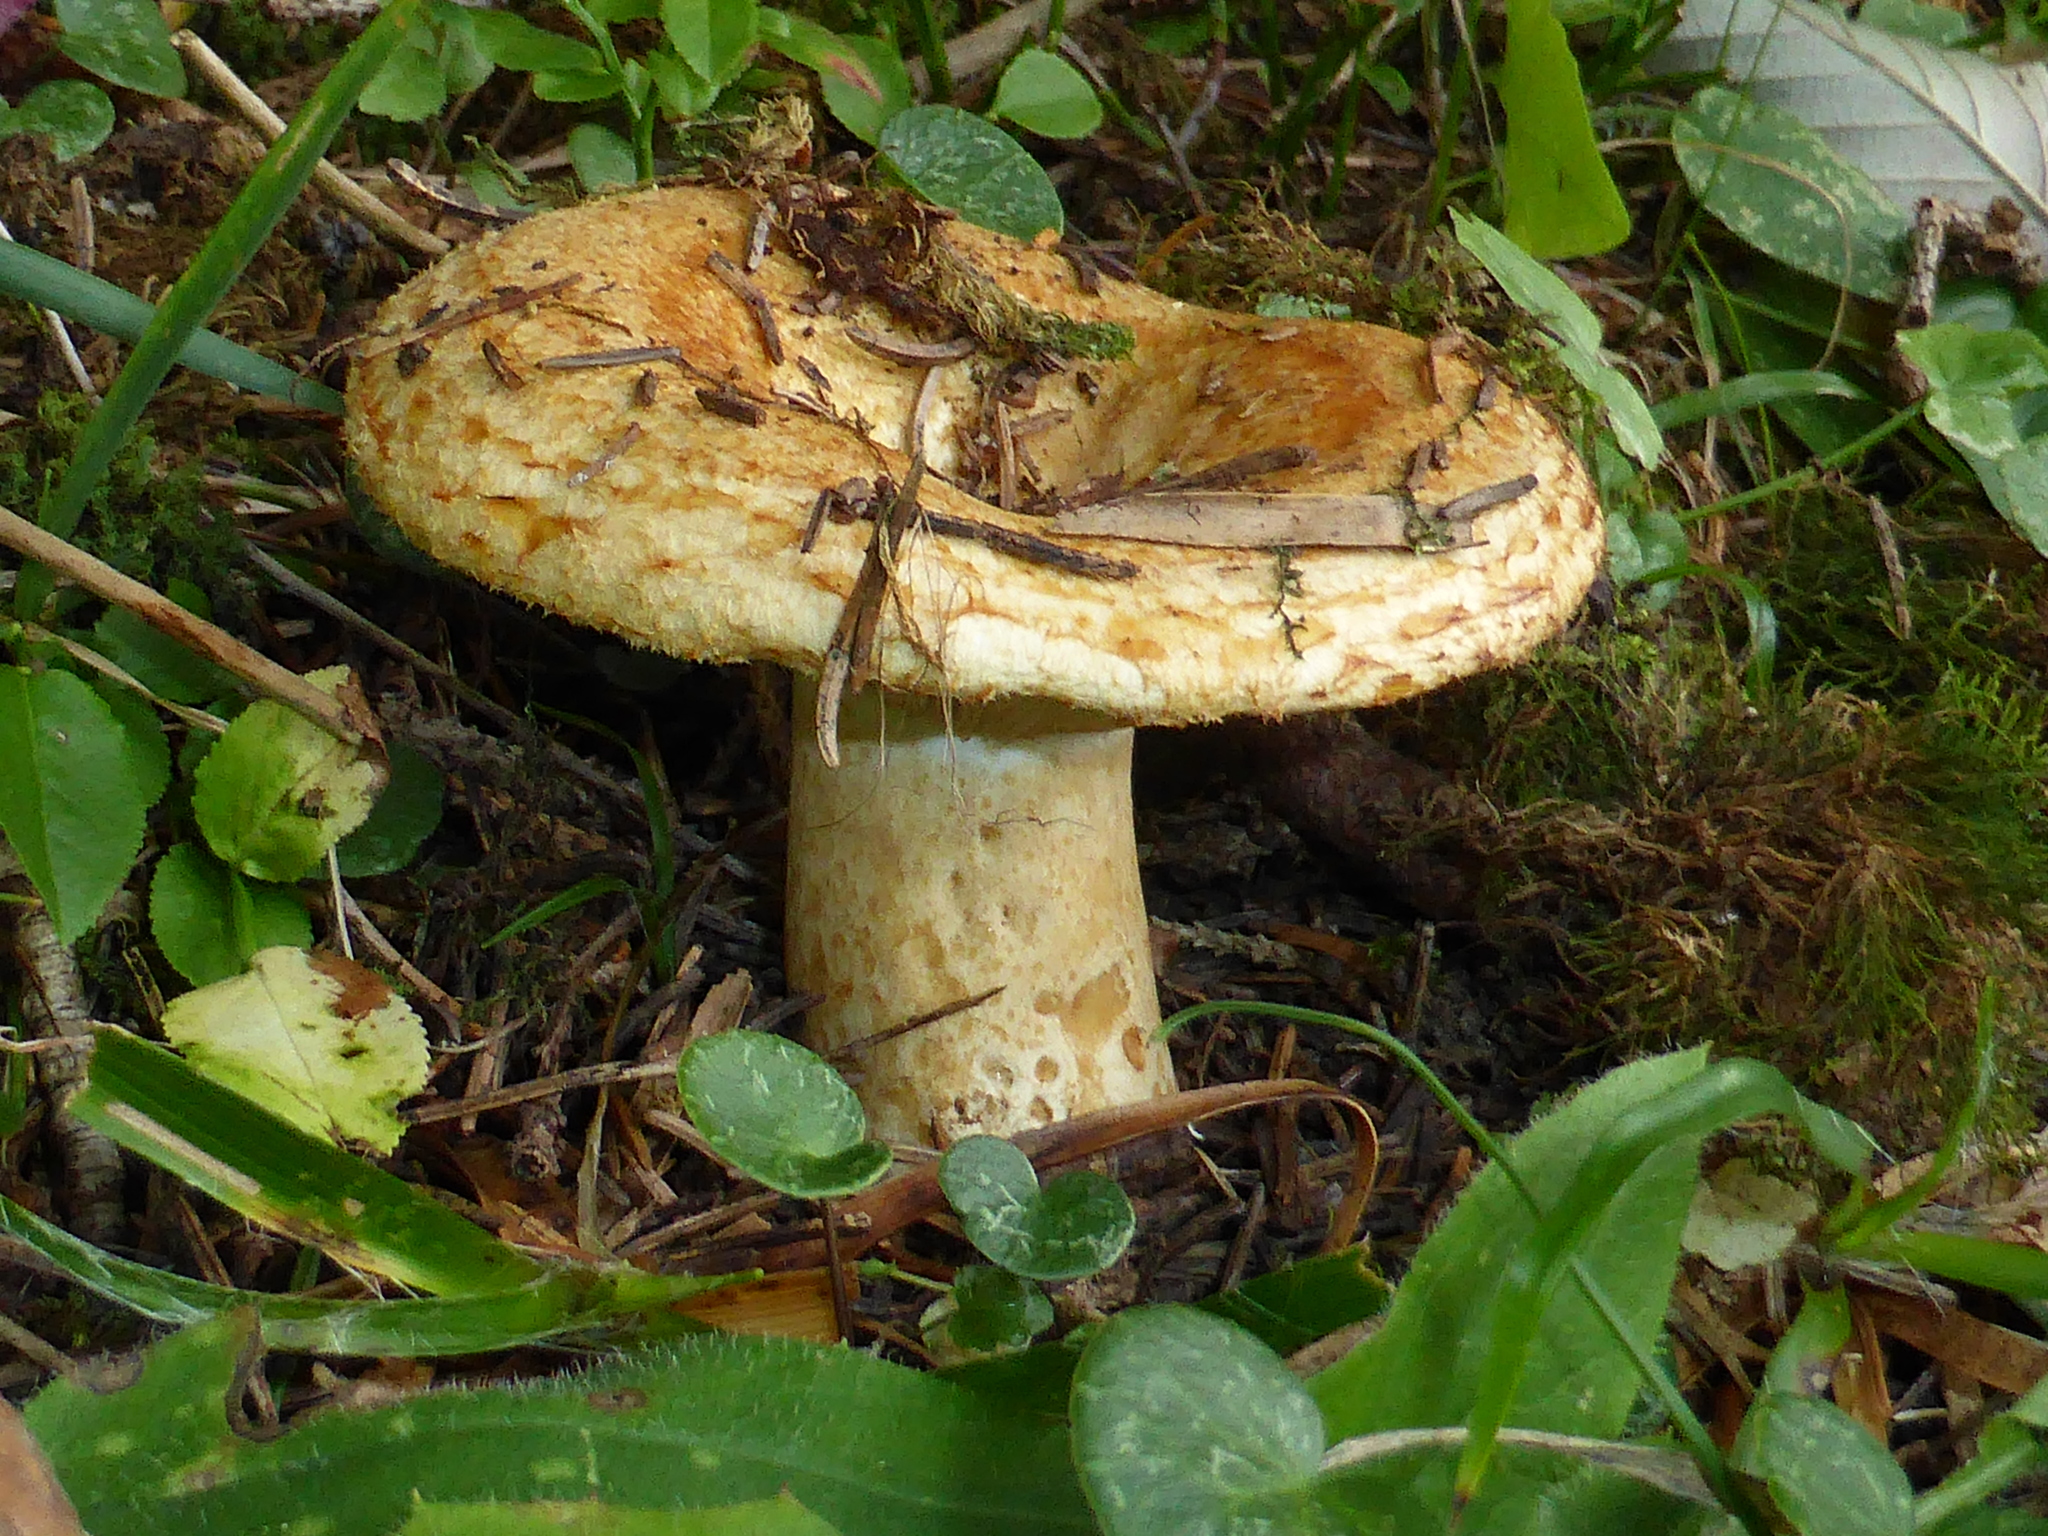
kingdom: Fungi
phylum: Basidiomycota
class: Agaricomycetes
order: Russulales
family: Russulaceae
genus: Lactarius
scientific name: Lactarius scrobiculatus
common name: Spotted milkcap
